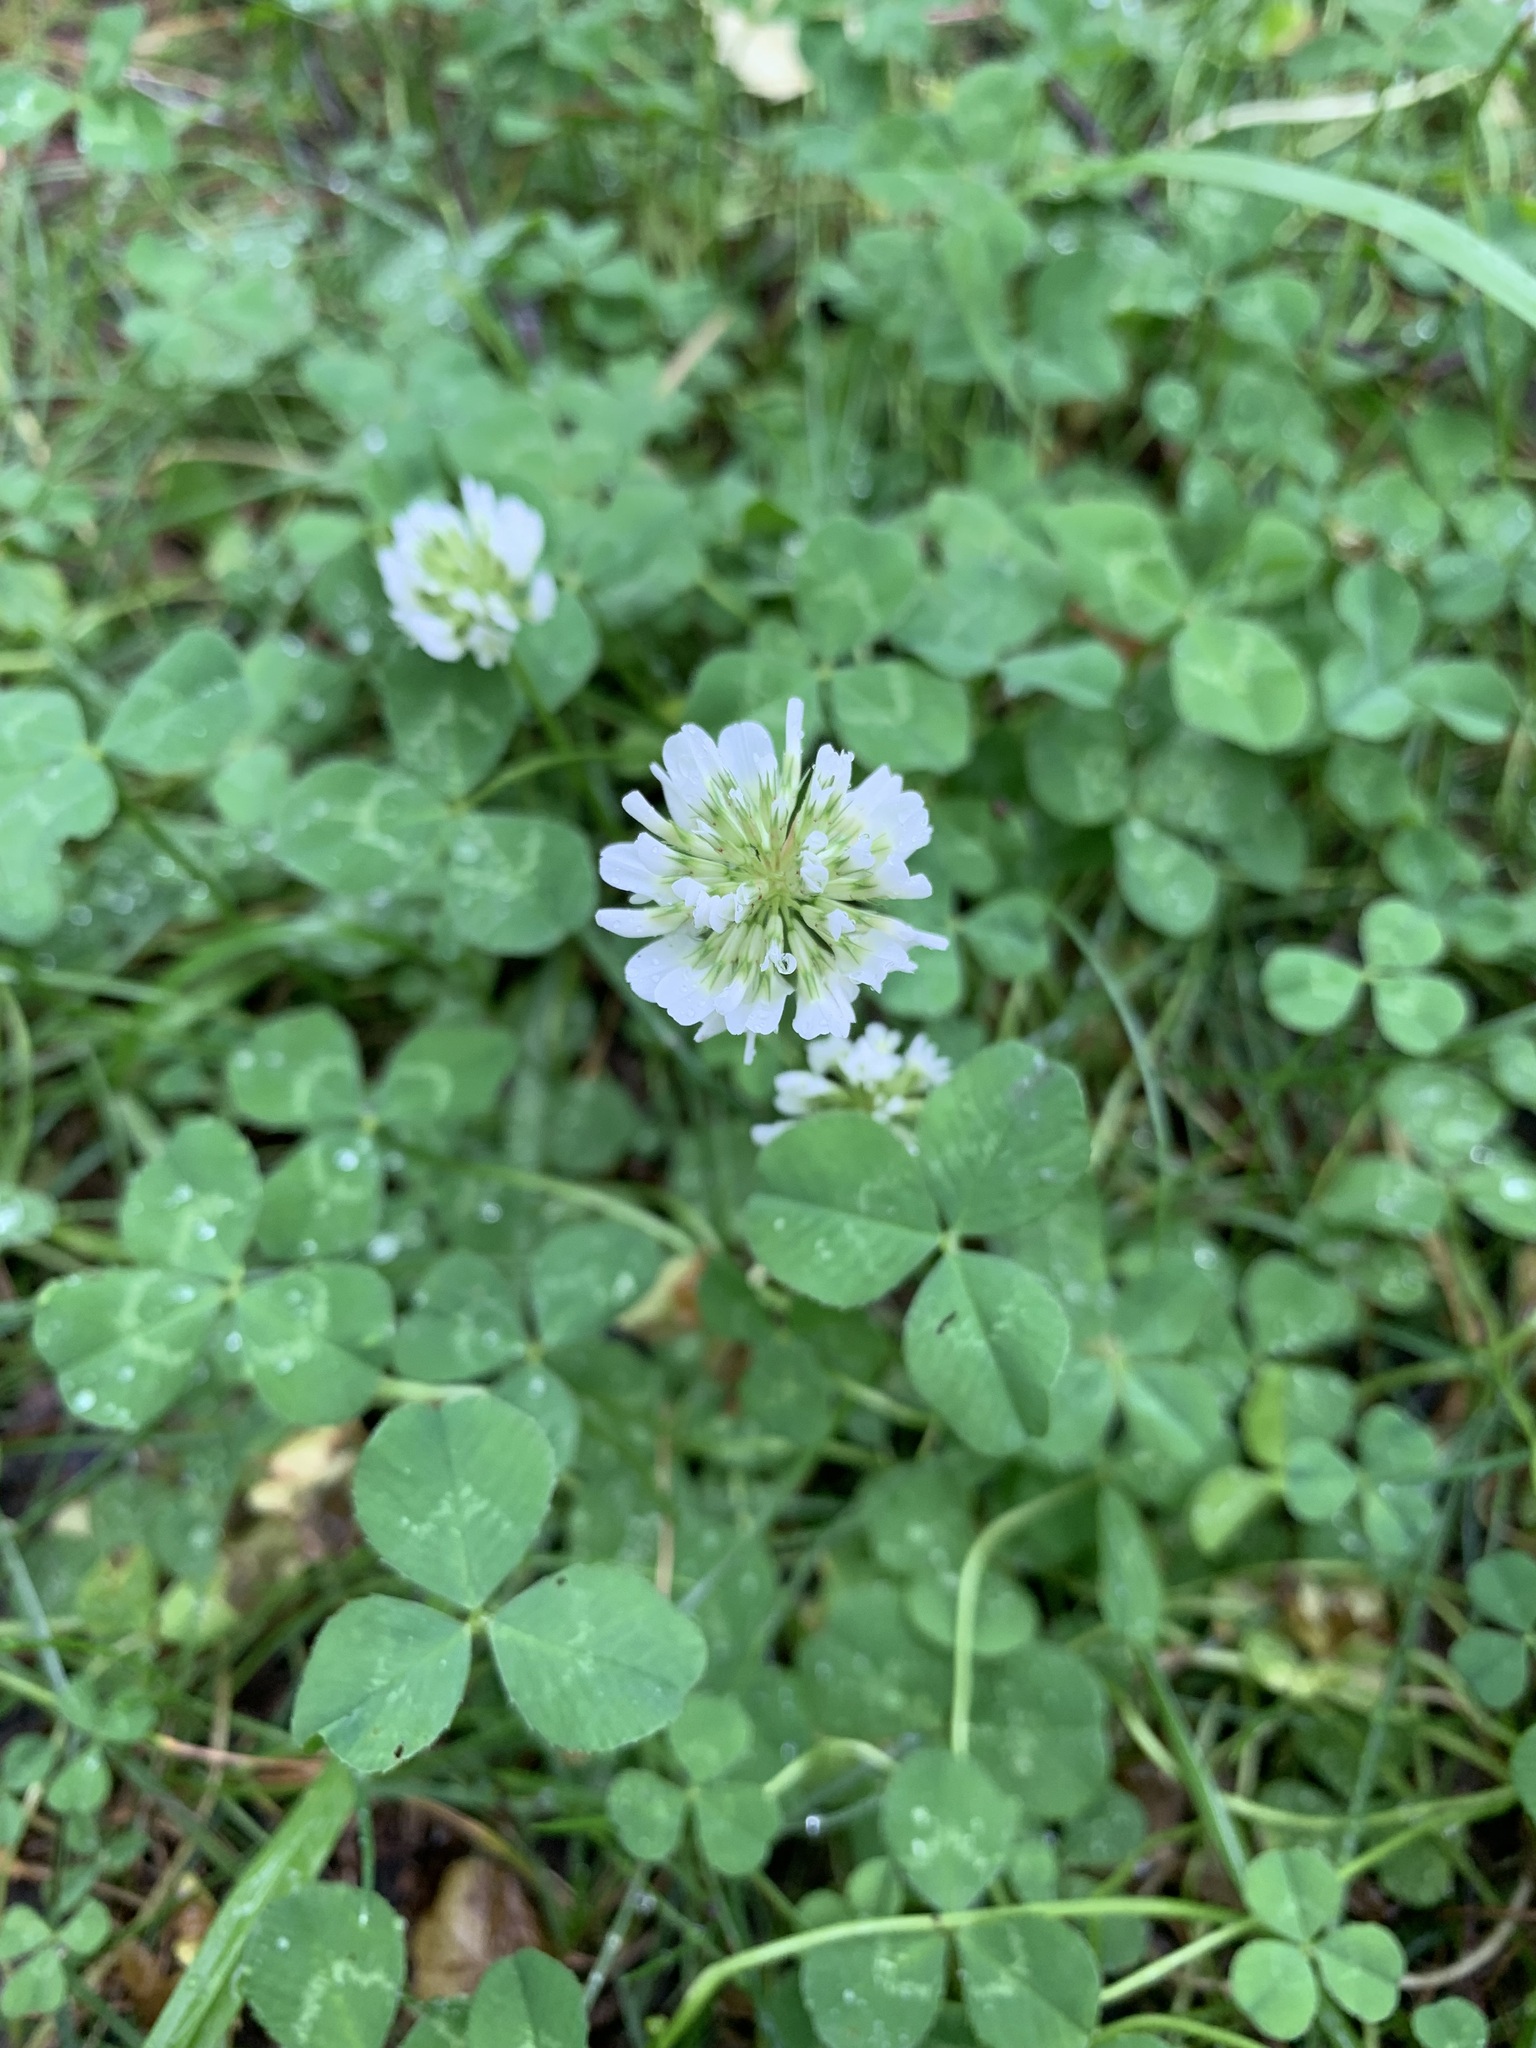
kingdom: Plantae
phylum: Tracheophyta
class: Magnoliopsida
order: Fabales
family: Fabaceae
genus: Trifolium
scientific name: Trifolium repens
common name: White clover
